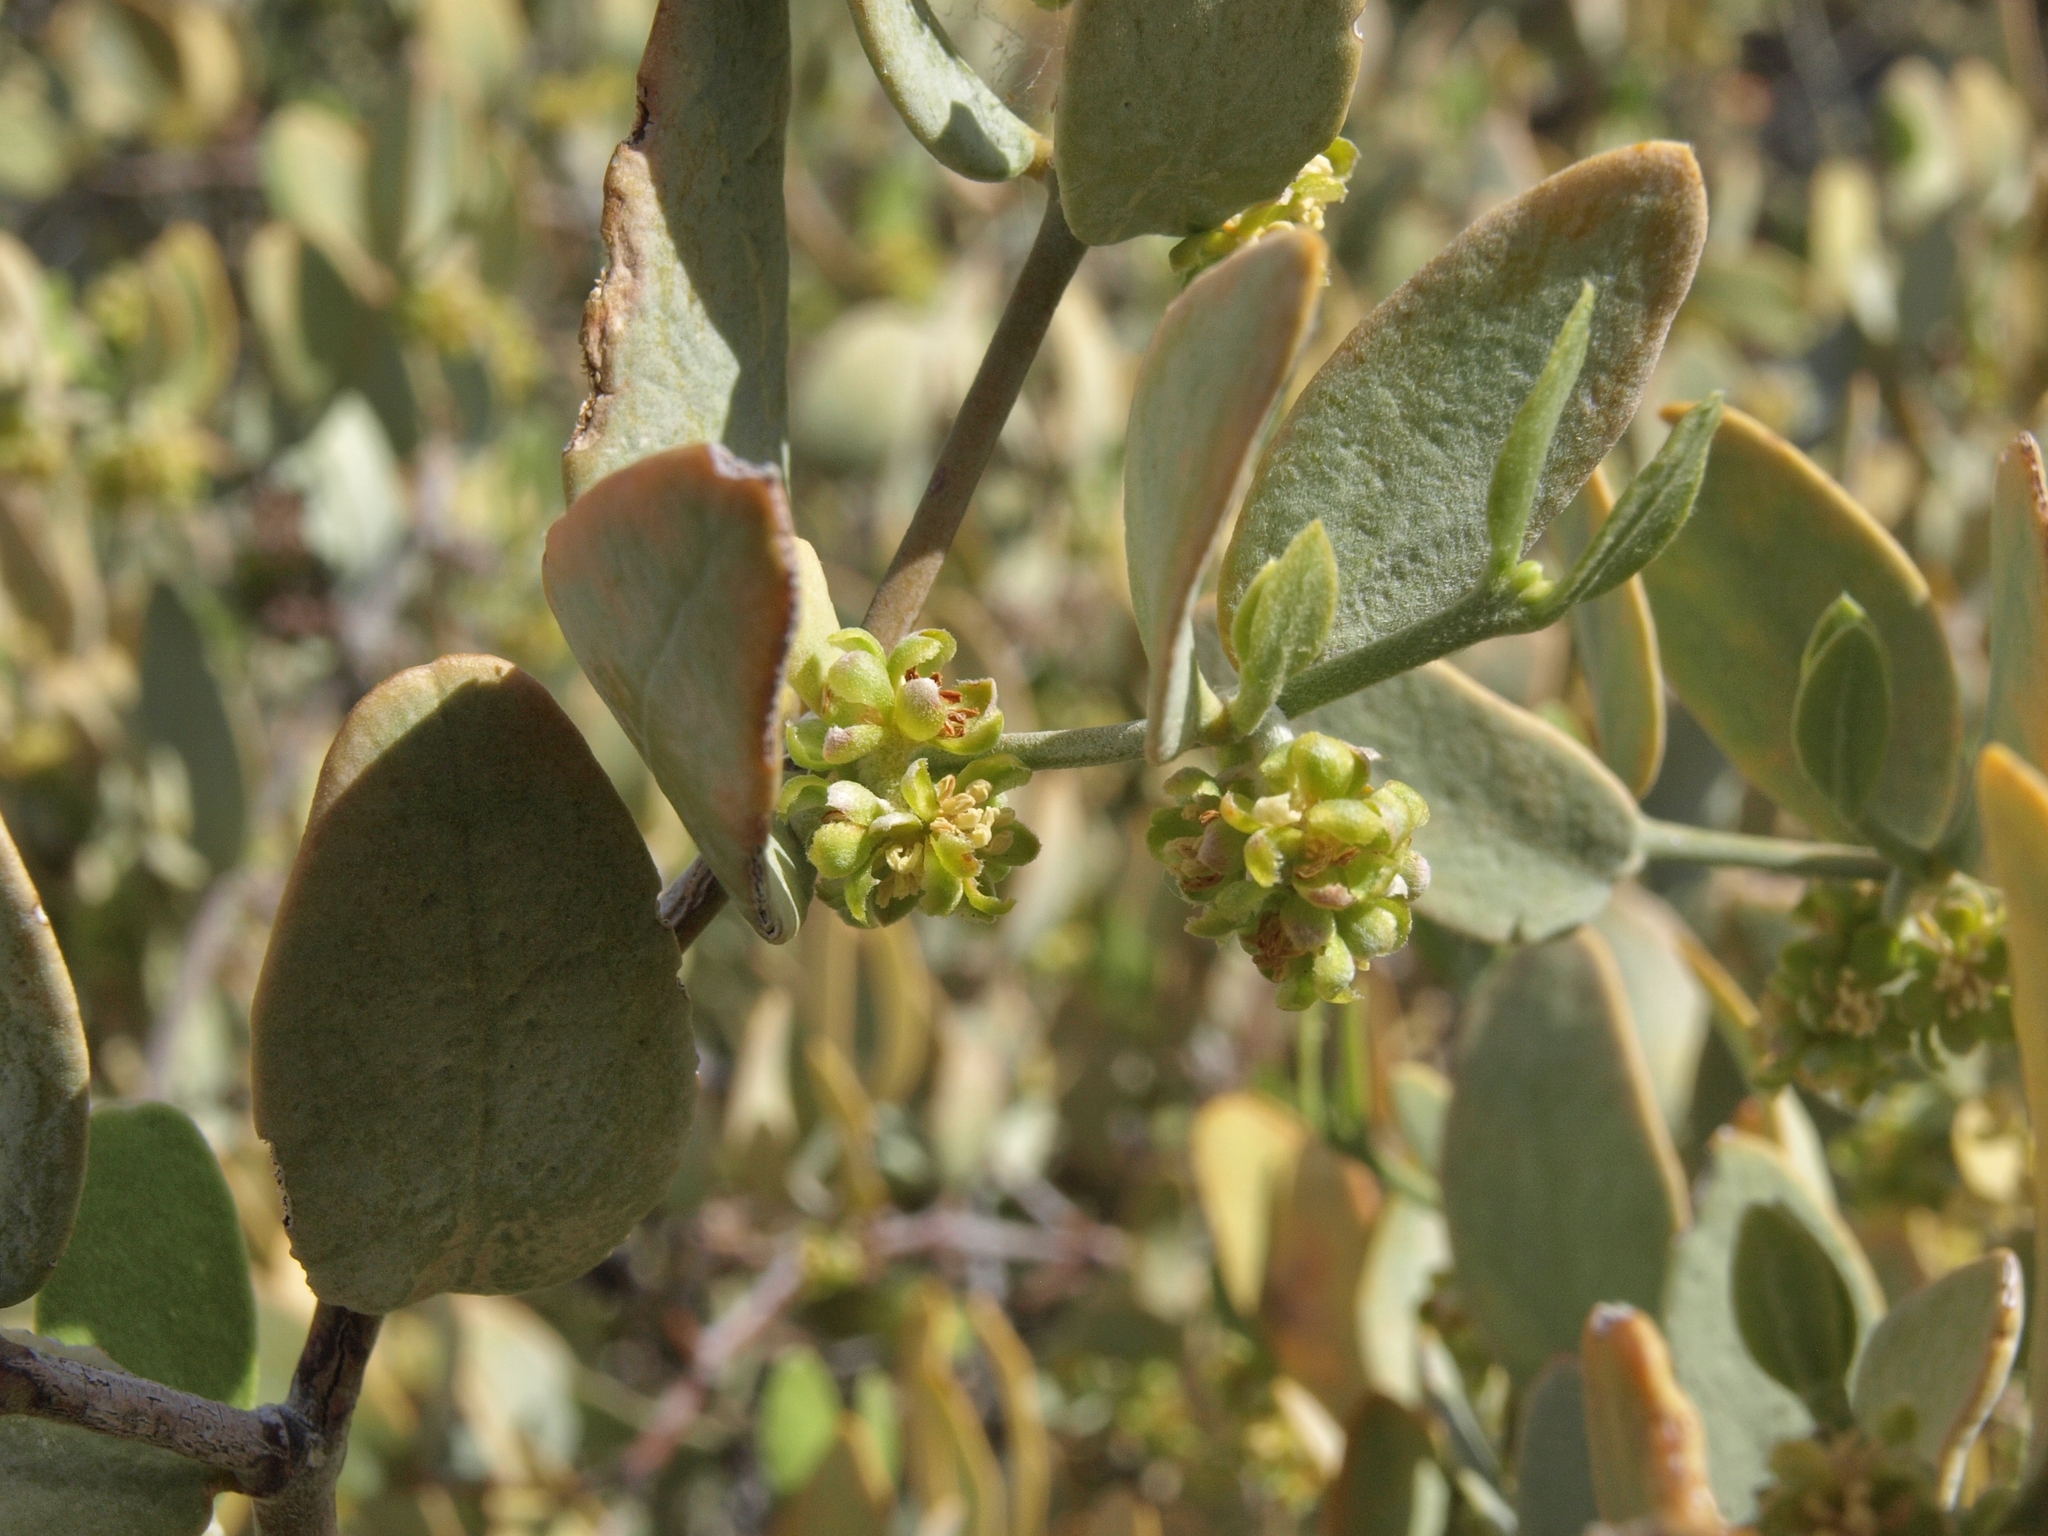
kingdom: Plantae
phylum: Tracheophyta
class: Magnoliopsida
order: Caryophyllales
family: Simmondsiaceae
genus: Simmondsia
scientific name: Simmondsia chinensis
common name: Jojoba
